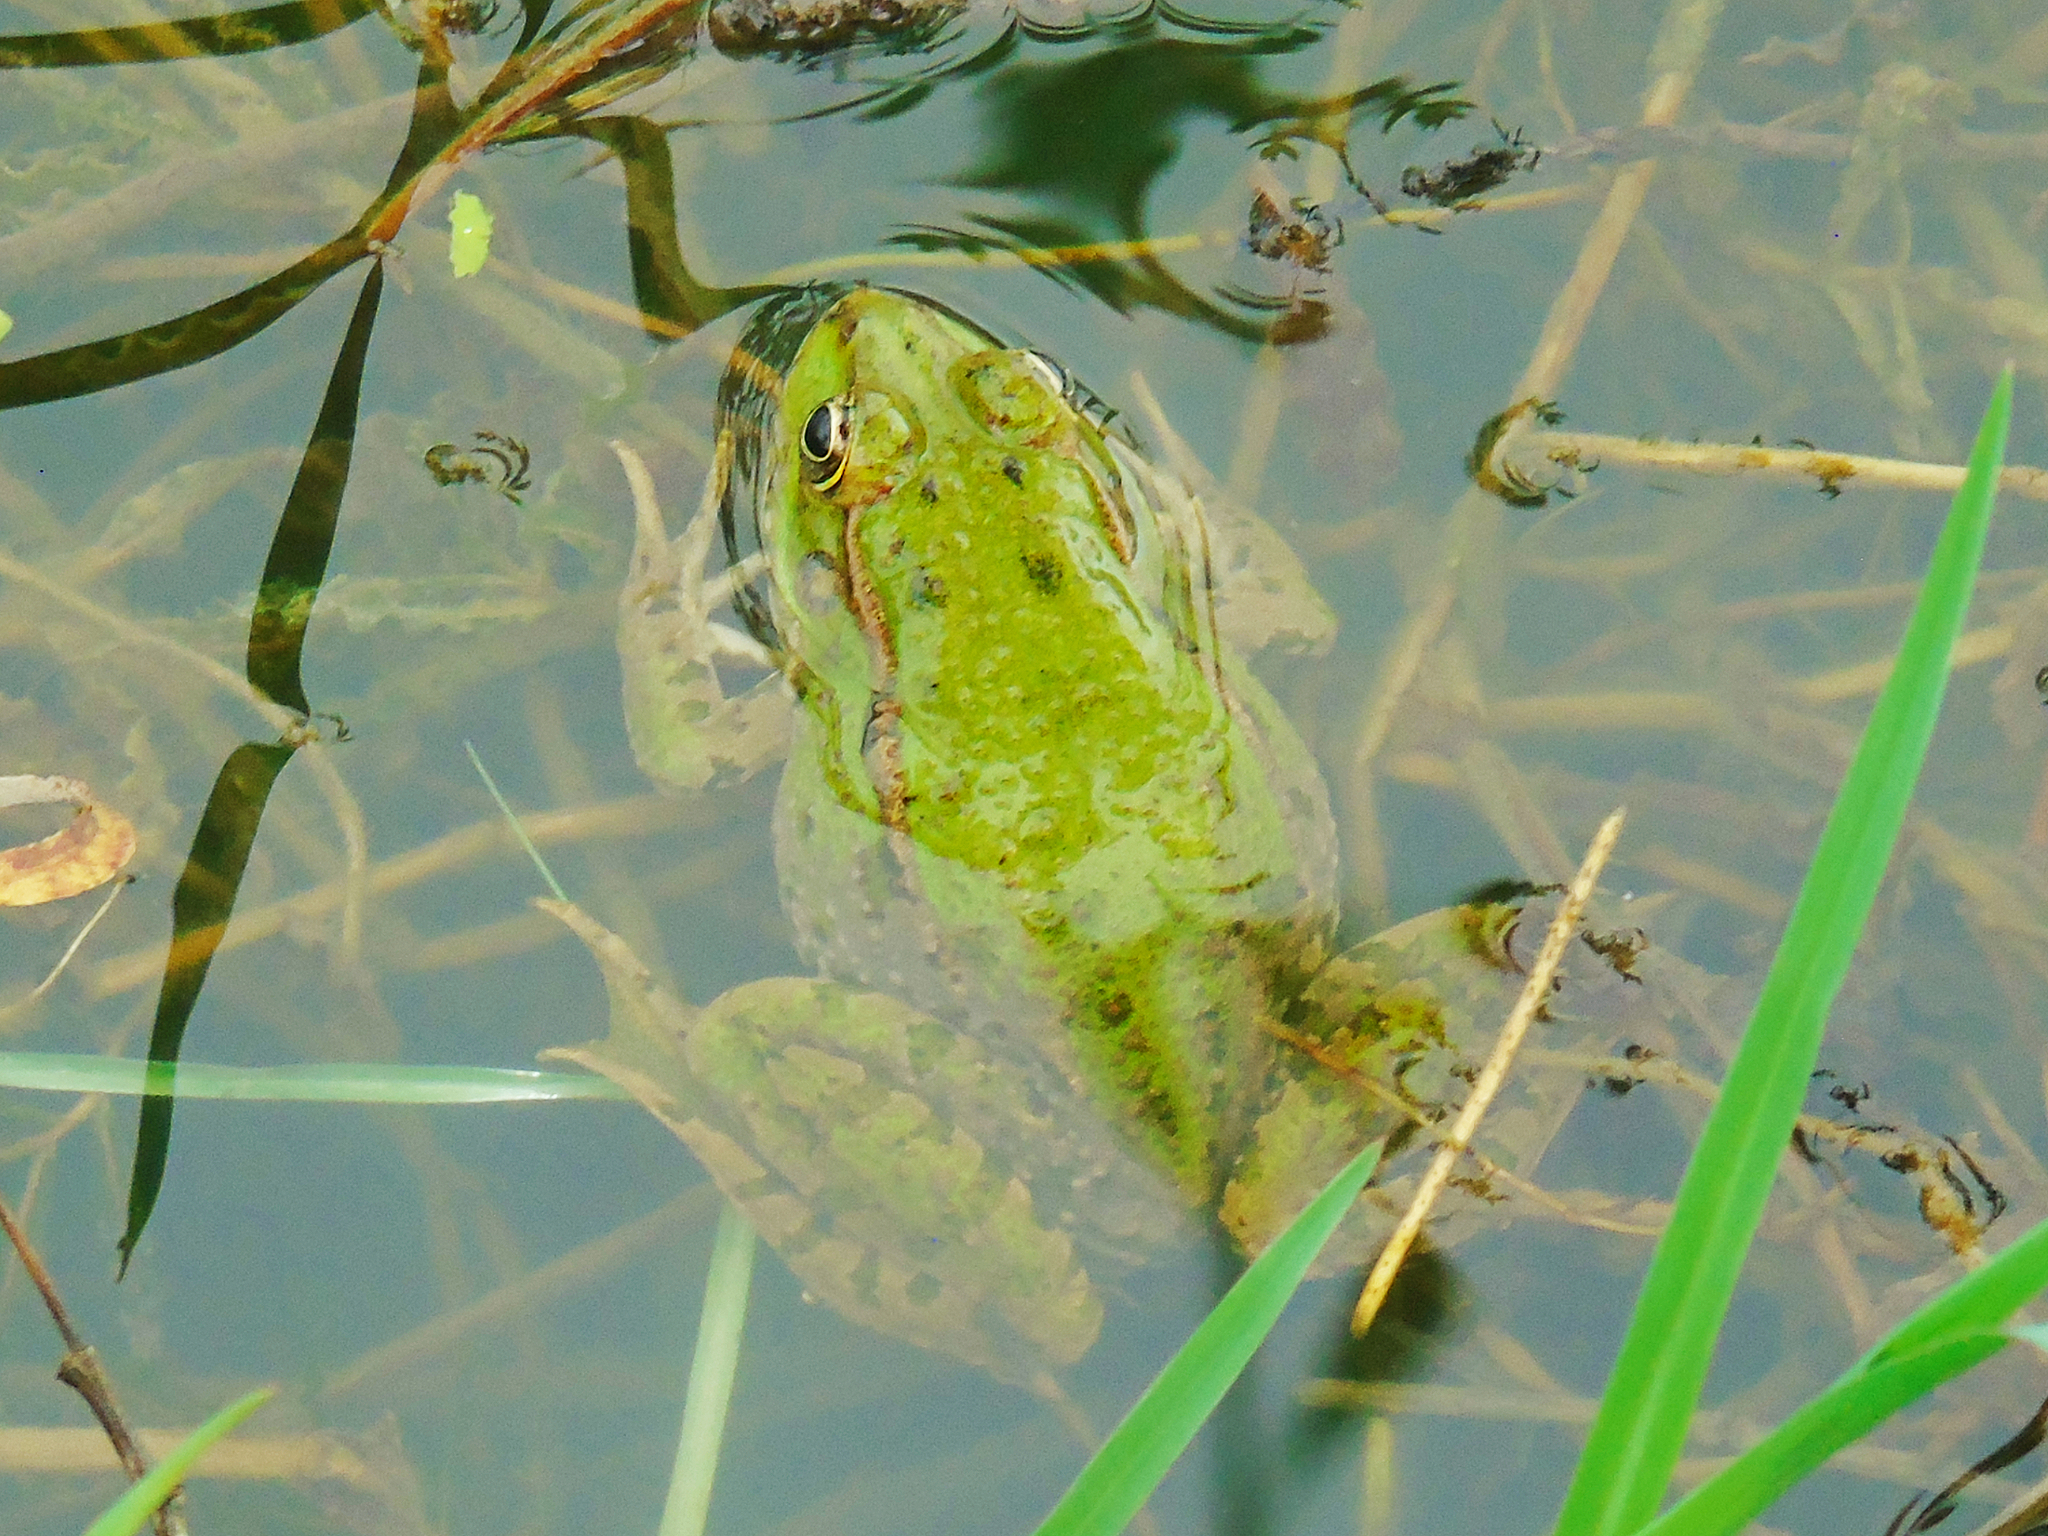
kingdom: Animalia
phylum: Chordata
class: Amphibia
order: Anura
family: Ranidae
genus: Pelophylax
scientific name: Pelophylax ridibundus
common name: Marsh frog
